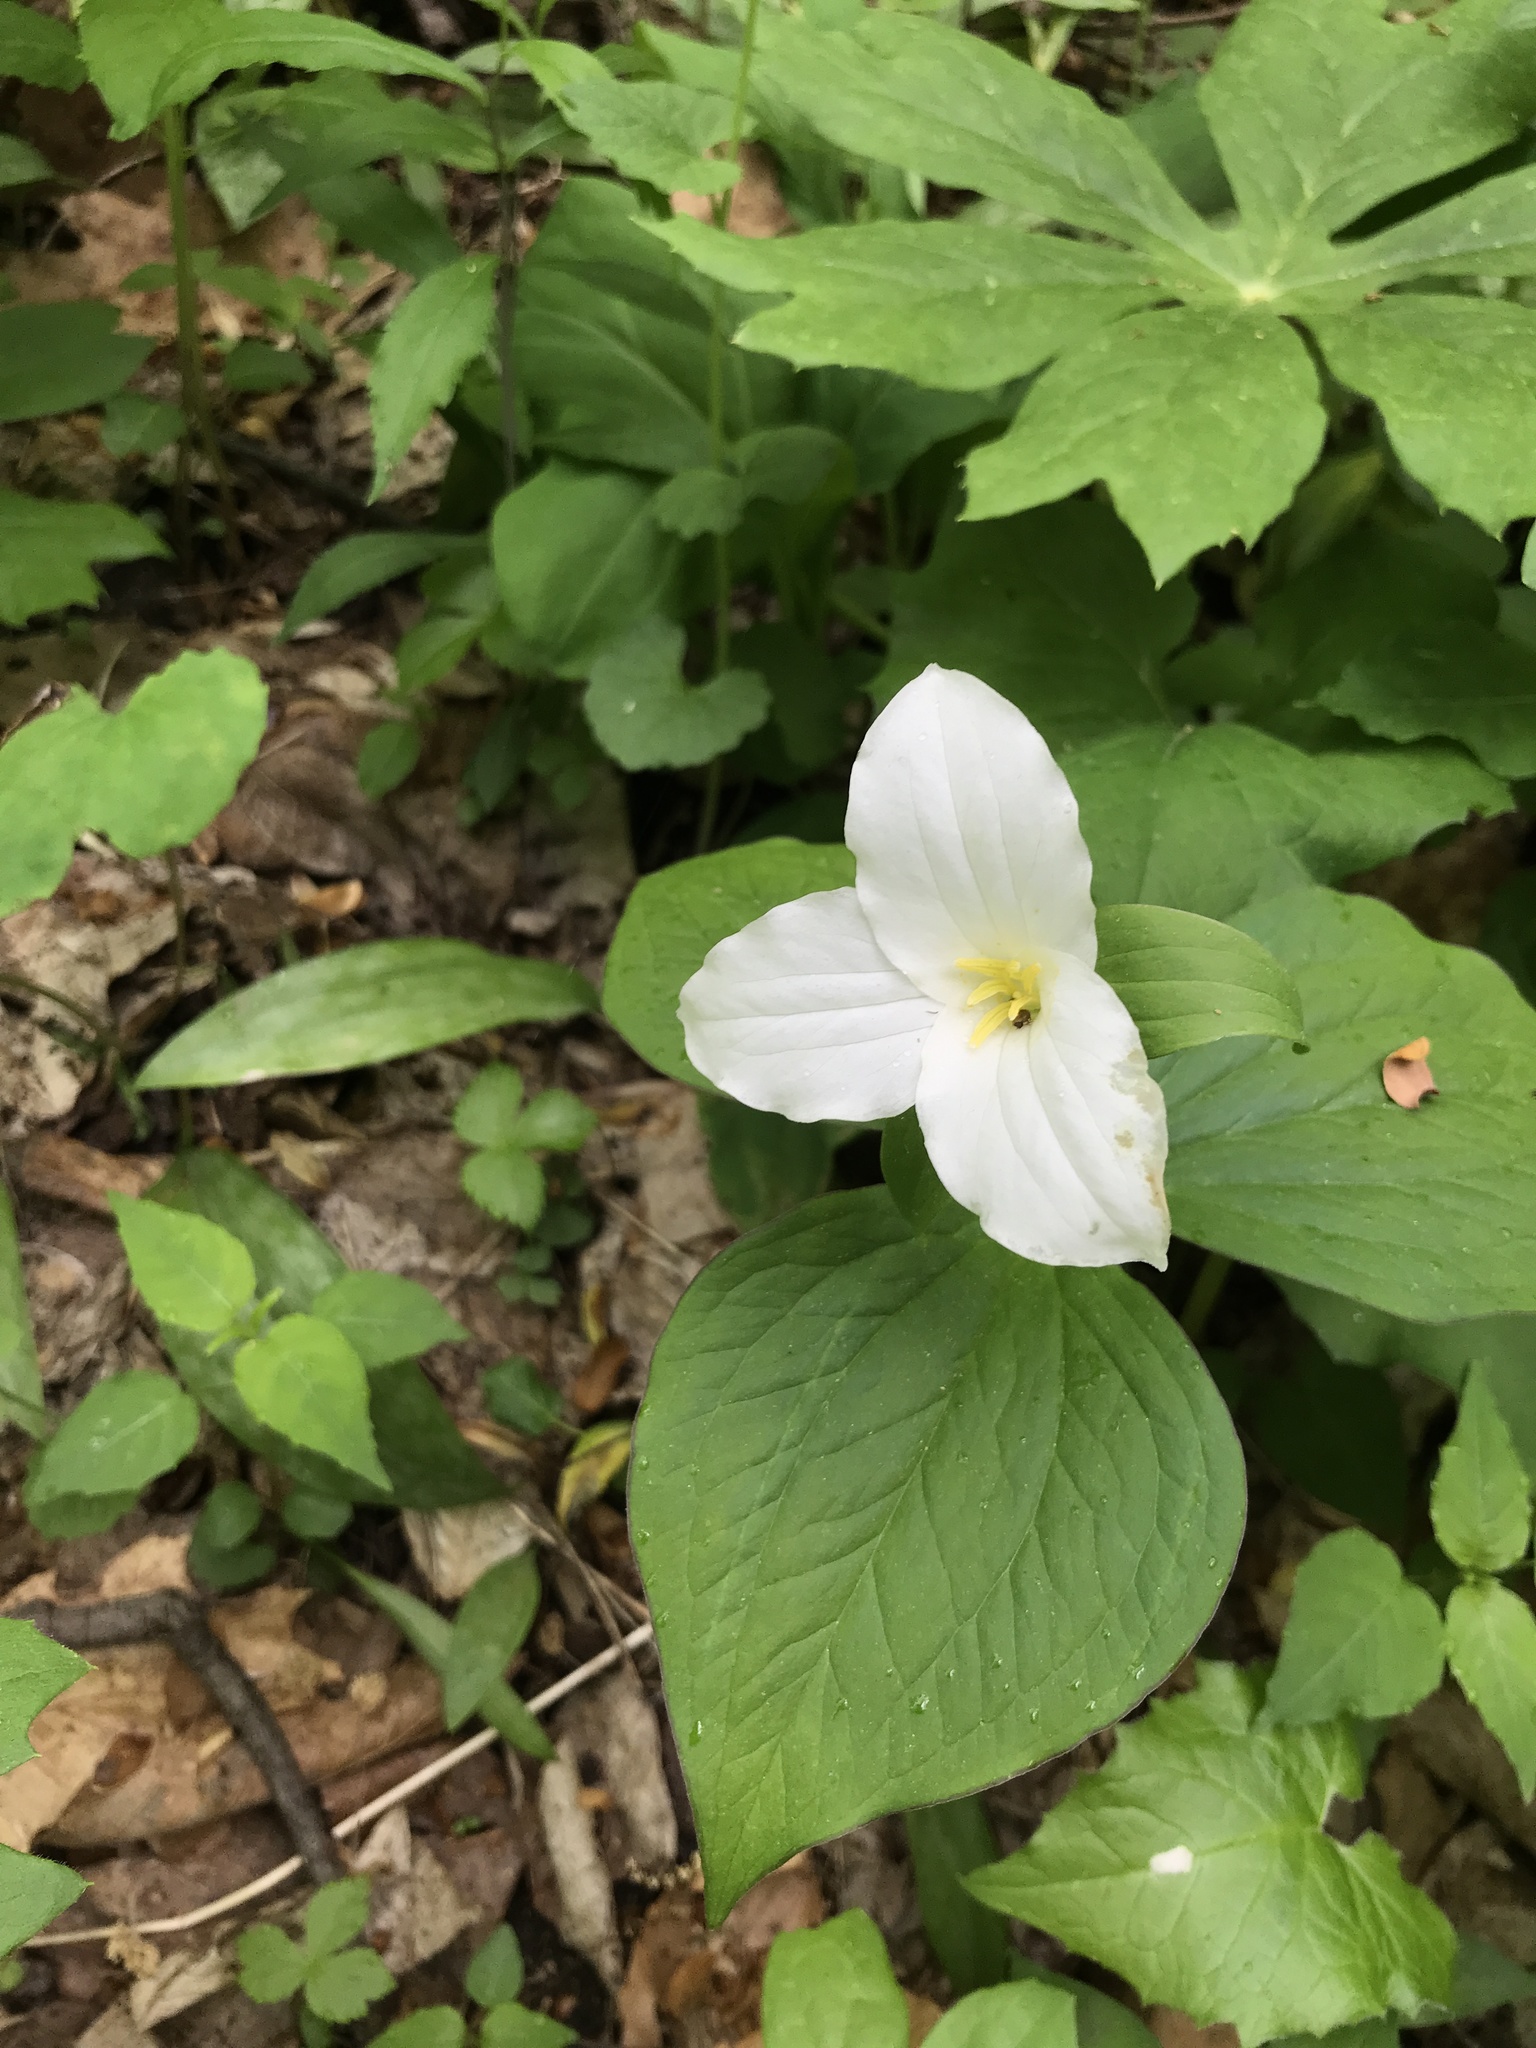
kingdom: Plantae
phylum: Tracheophyta
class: Liliopsida
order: Liliales
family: Melanthiaceae
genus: Trillium
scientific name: Trillium grandiflorum
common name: Great white trillium
